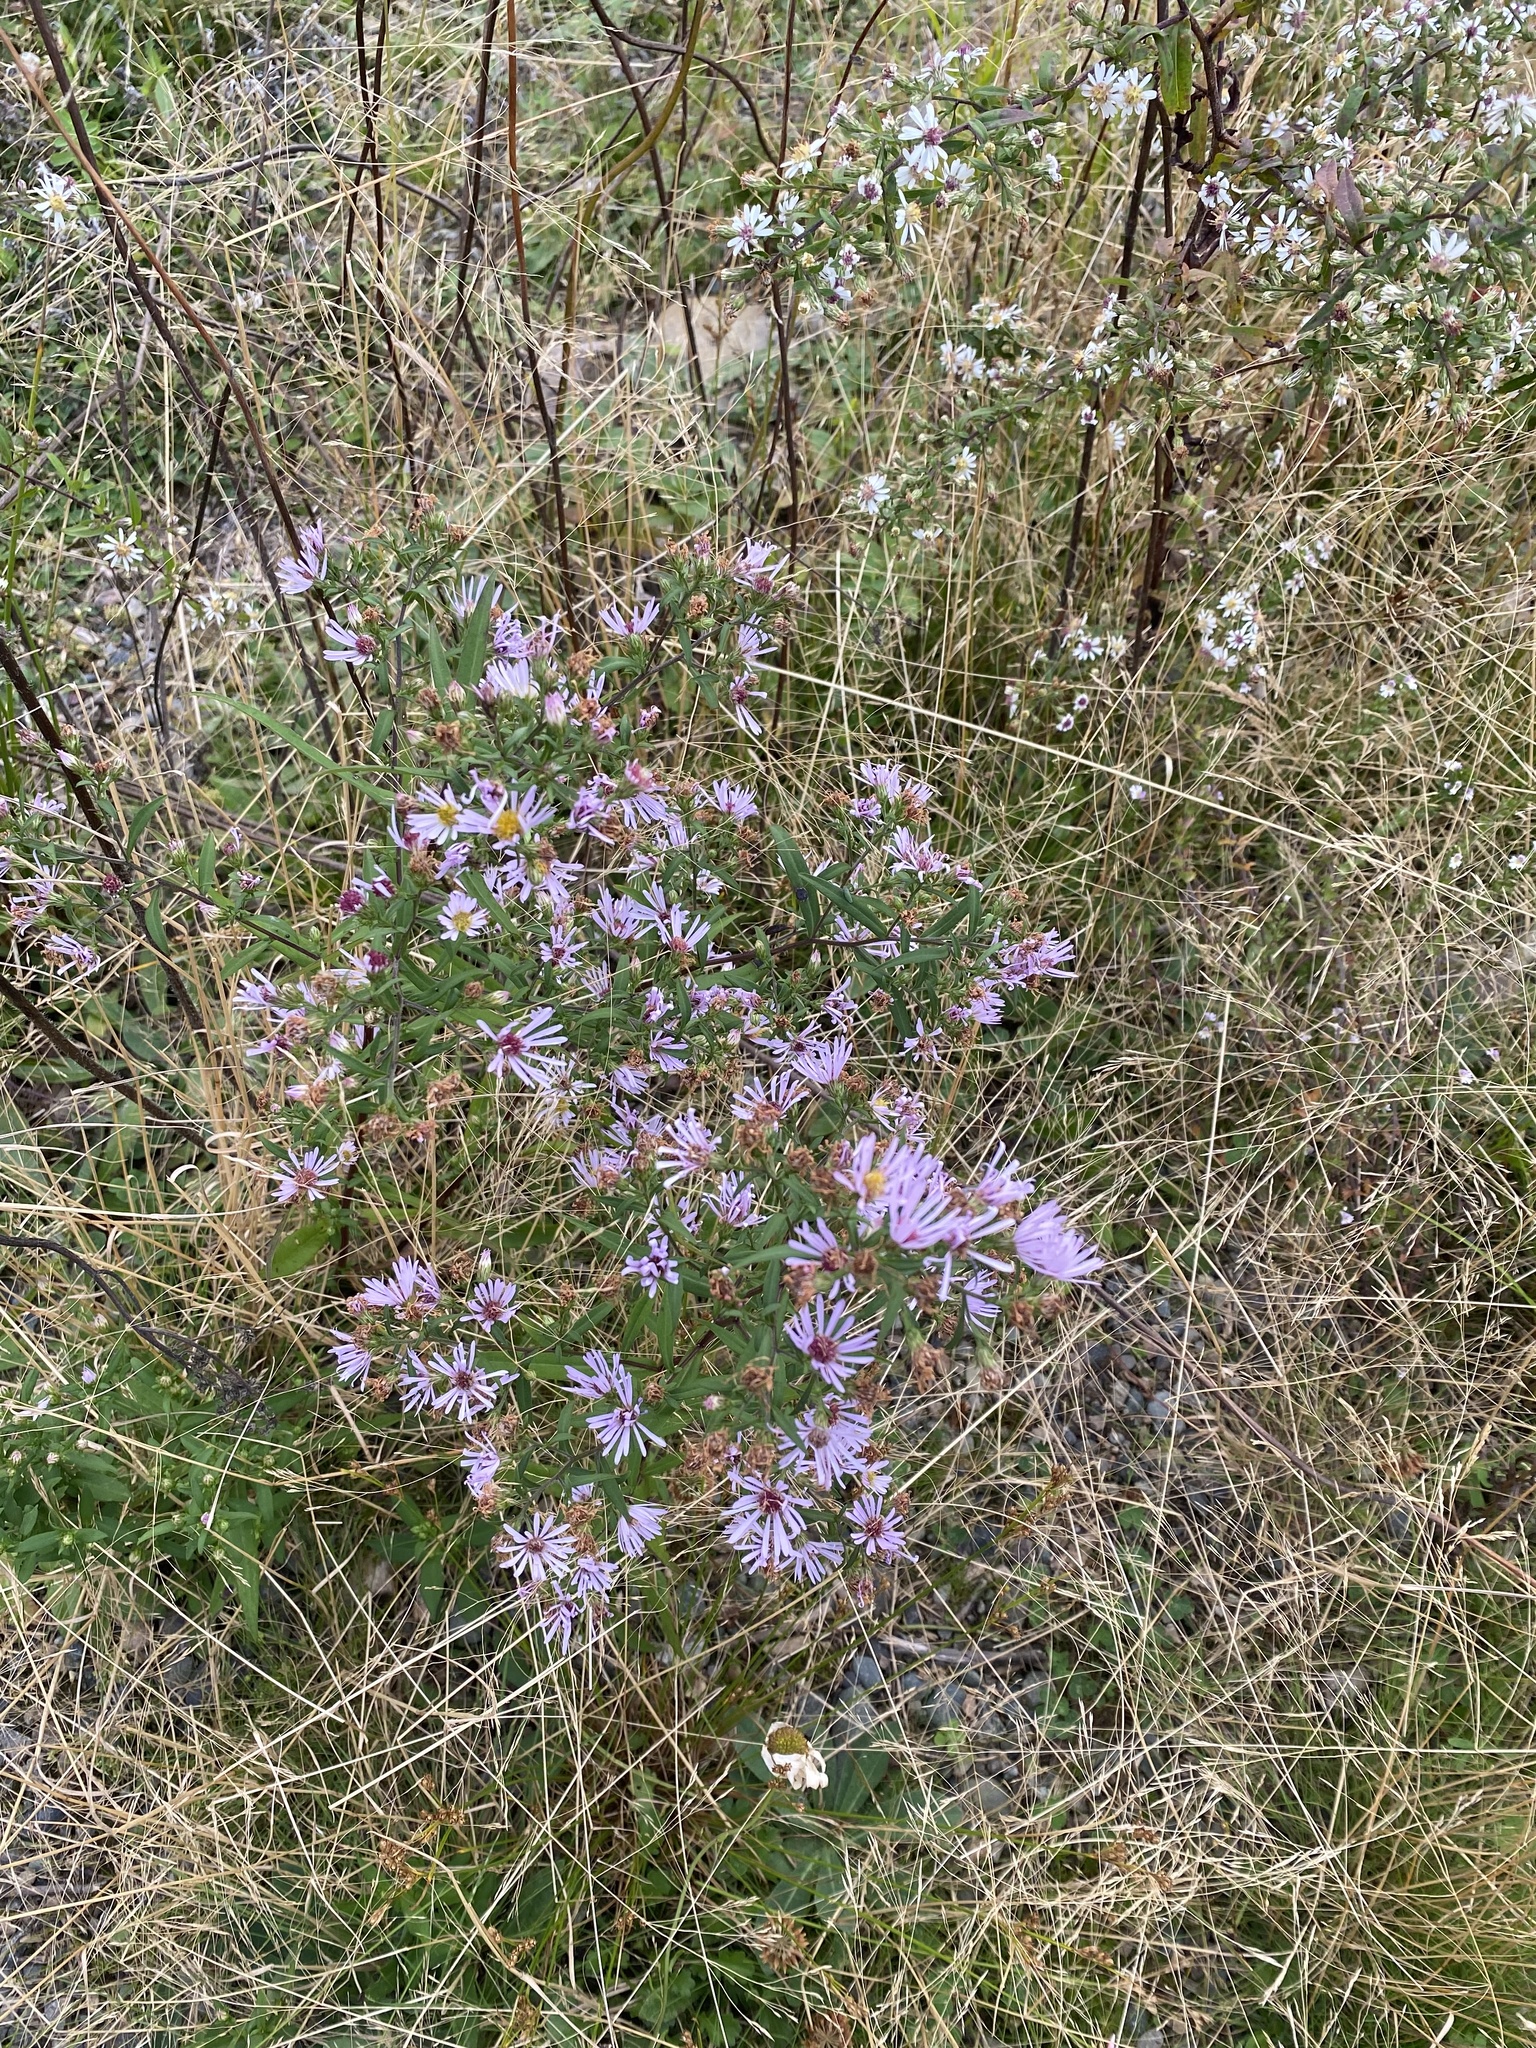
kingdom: Plantae
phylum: Tracheophyta
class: Magnoliopsida
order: Asterales
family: Asteraceae
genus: Symphyotrichum
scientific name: Symphyotrichum novi-belgii
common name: Michaelmas daisy
